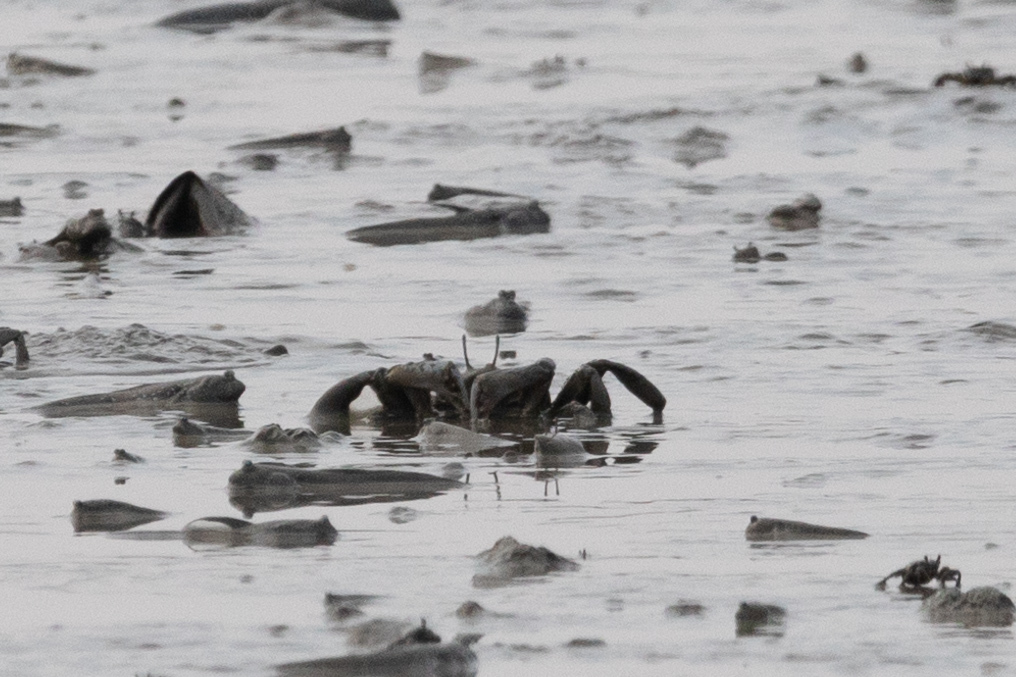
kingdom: Animalia
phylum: Arthropoda
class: Malacostraca
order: Decapoda
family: Macrophthalmidae
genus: Macrophthalmus
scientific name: Macrophthalmus tomentosus
